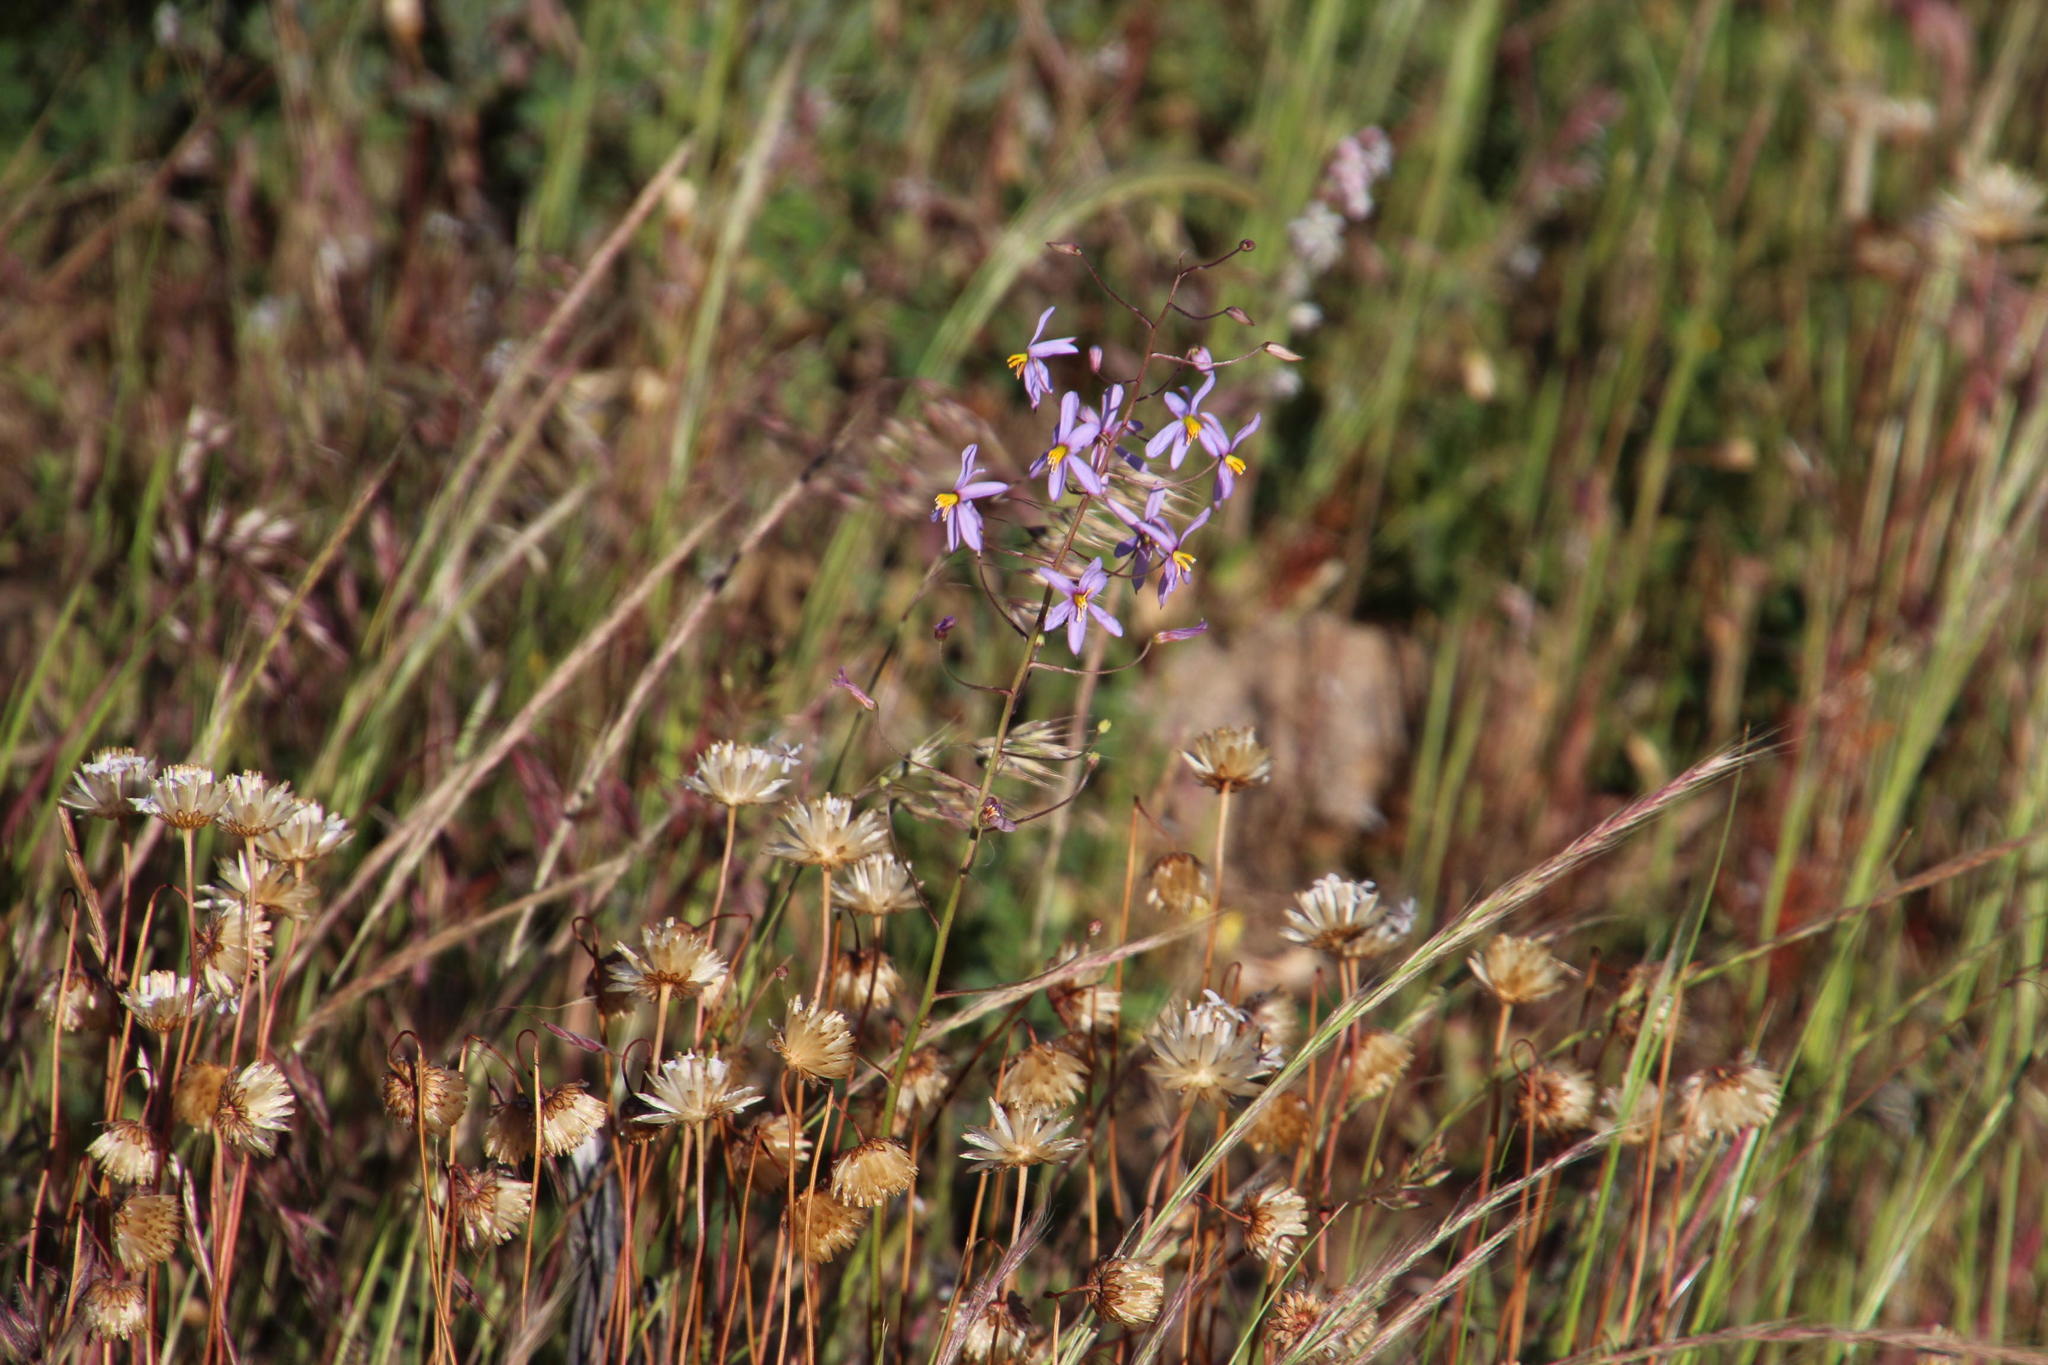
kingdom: Plantae
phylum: Tracheophyta
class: Liliopsida
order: Asparagales
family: Tecophilaeaceae
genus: Cyanella
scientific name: Cyanella hyacinthoides
